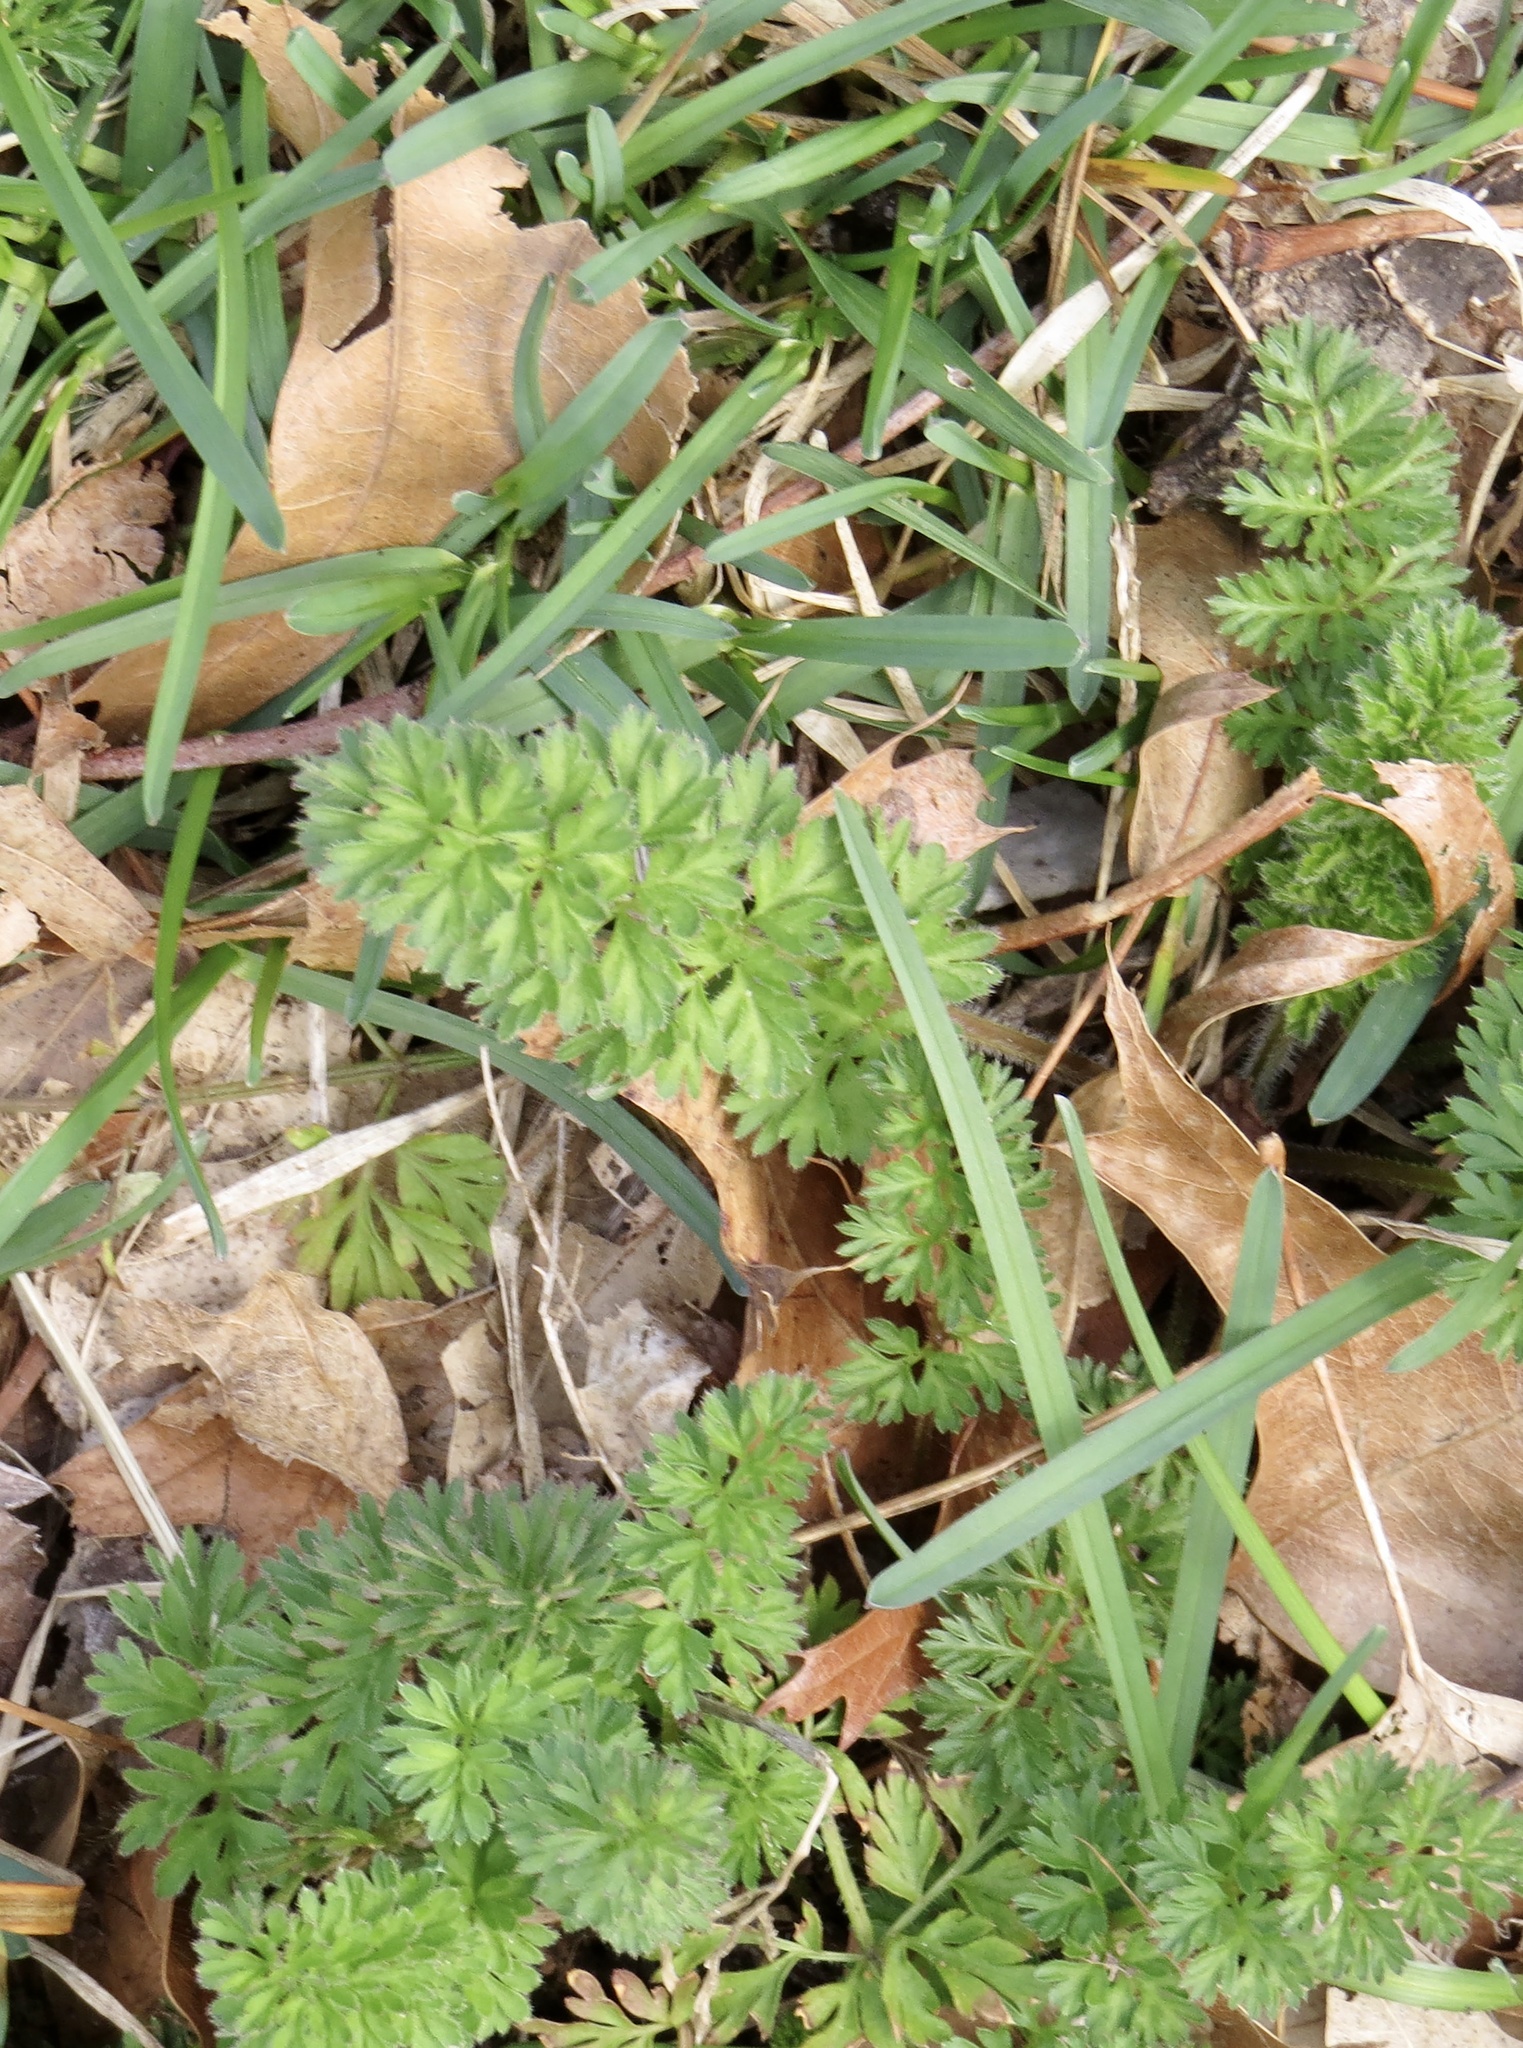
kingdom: Plantae
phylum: Tracheophyta
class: Magnoliopsida
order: Apiales
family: Apiaceae
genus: Daucus
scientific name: Daucus carota
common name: Wild carrot
